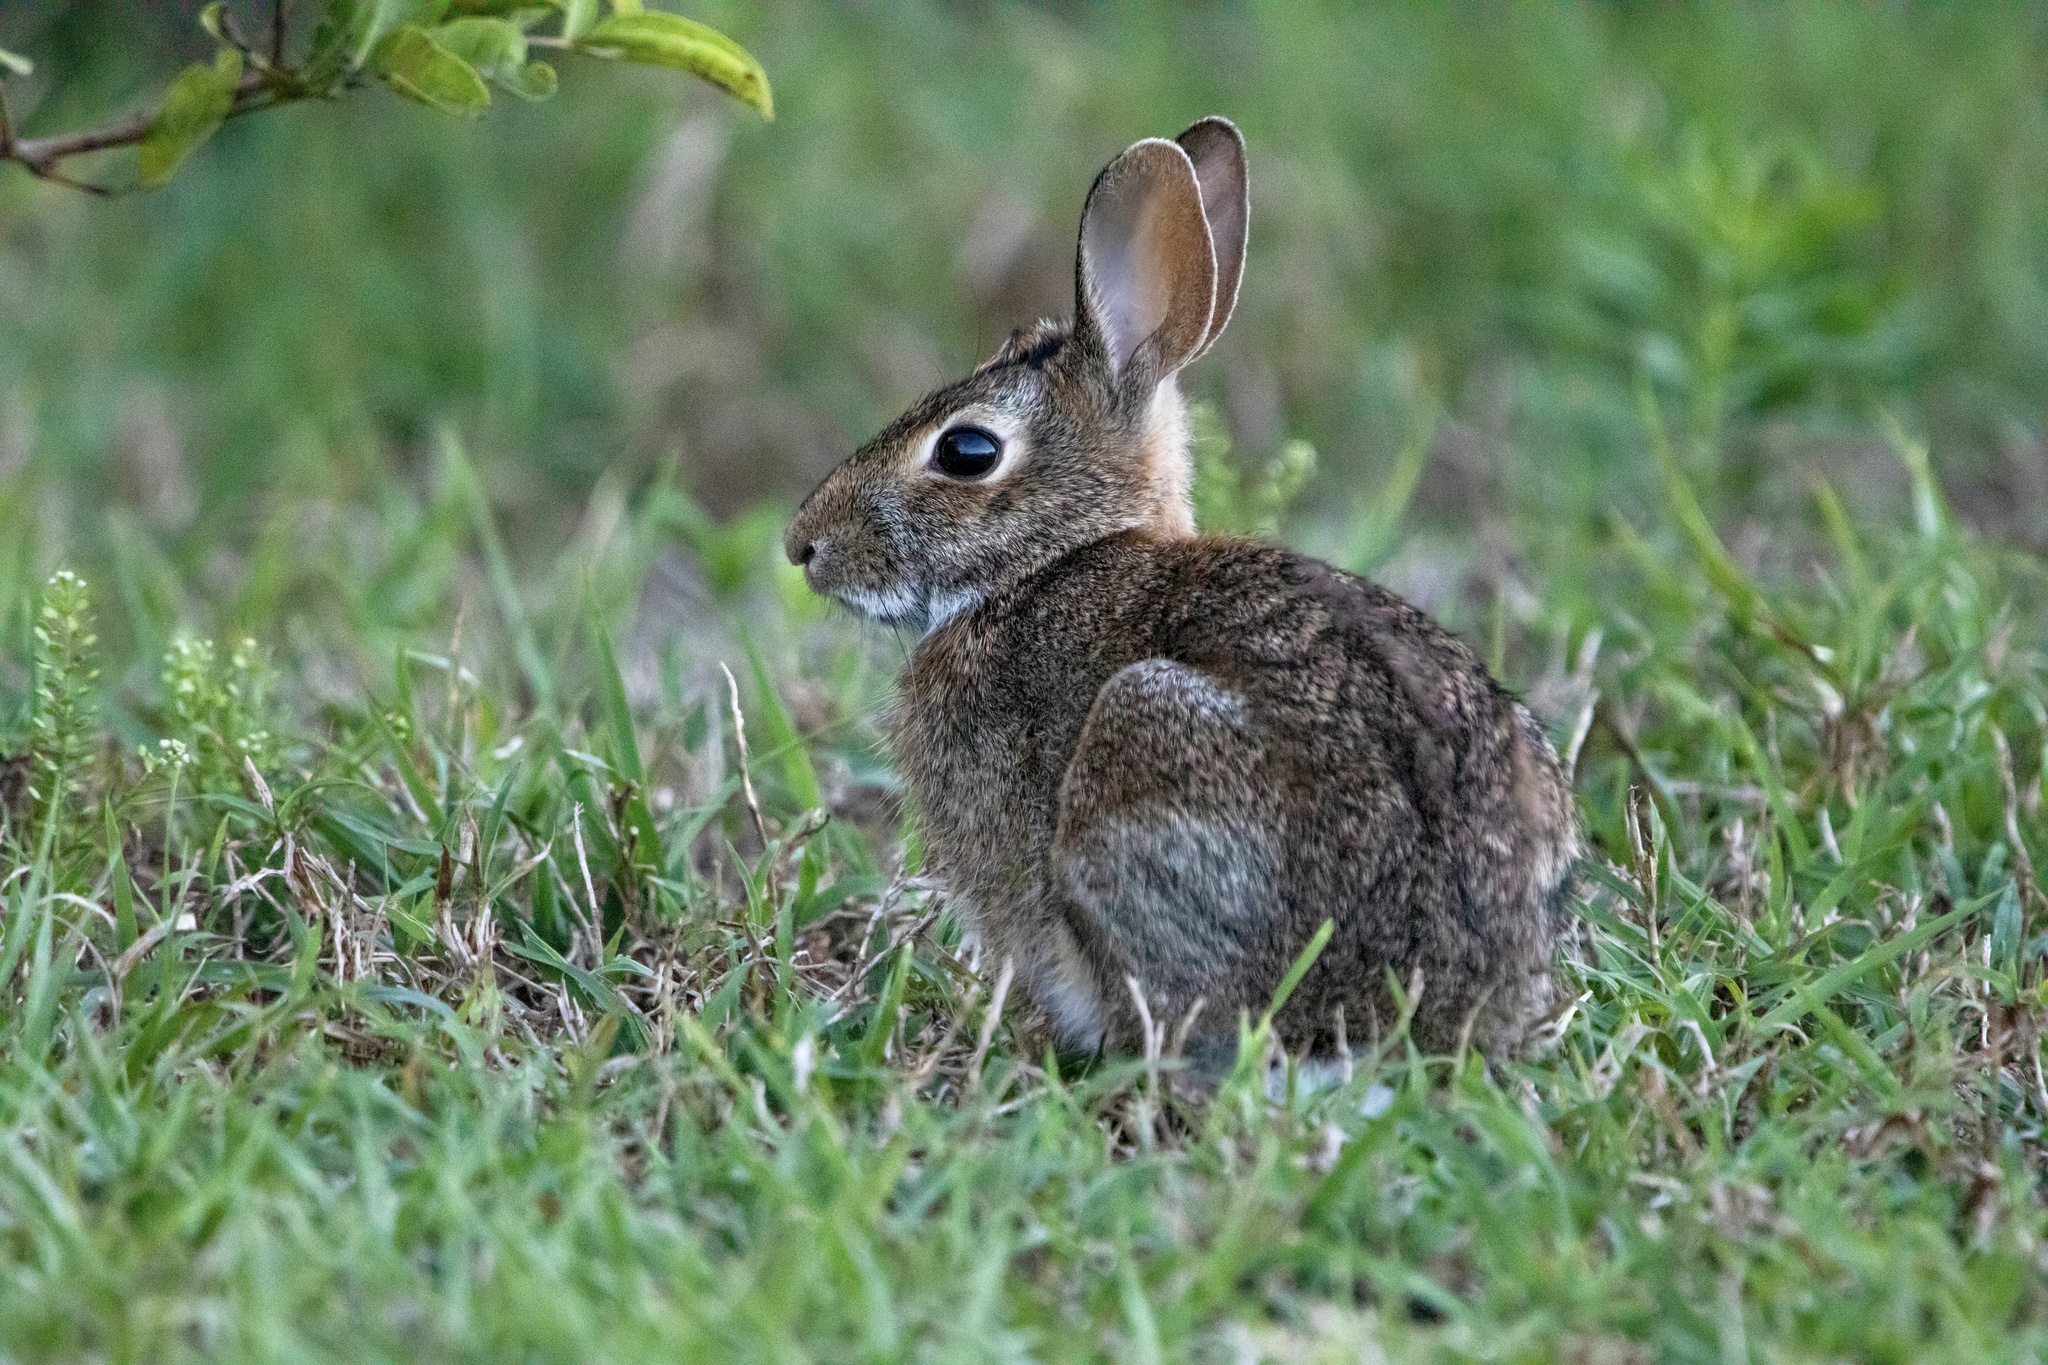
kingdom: Animalia
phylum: Chordata
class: Mammalia
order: Lagomorpha
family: Leporidae
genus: Sylvilagus
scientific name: Sylvilagus floridanus
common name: Eastern cottontail
